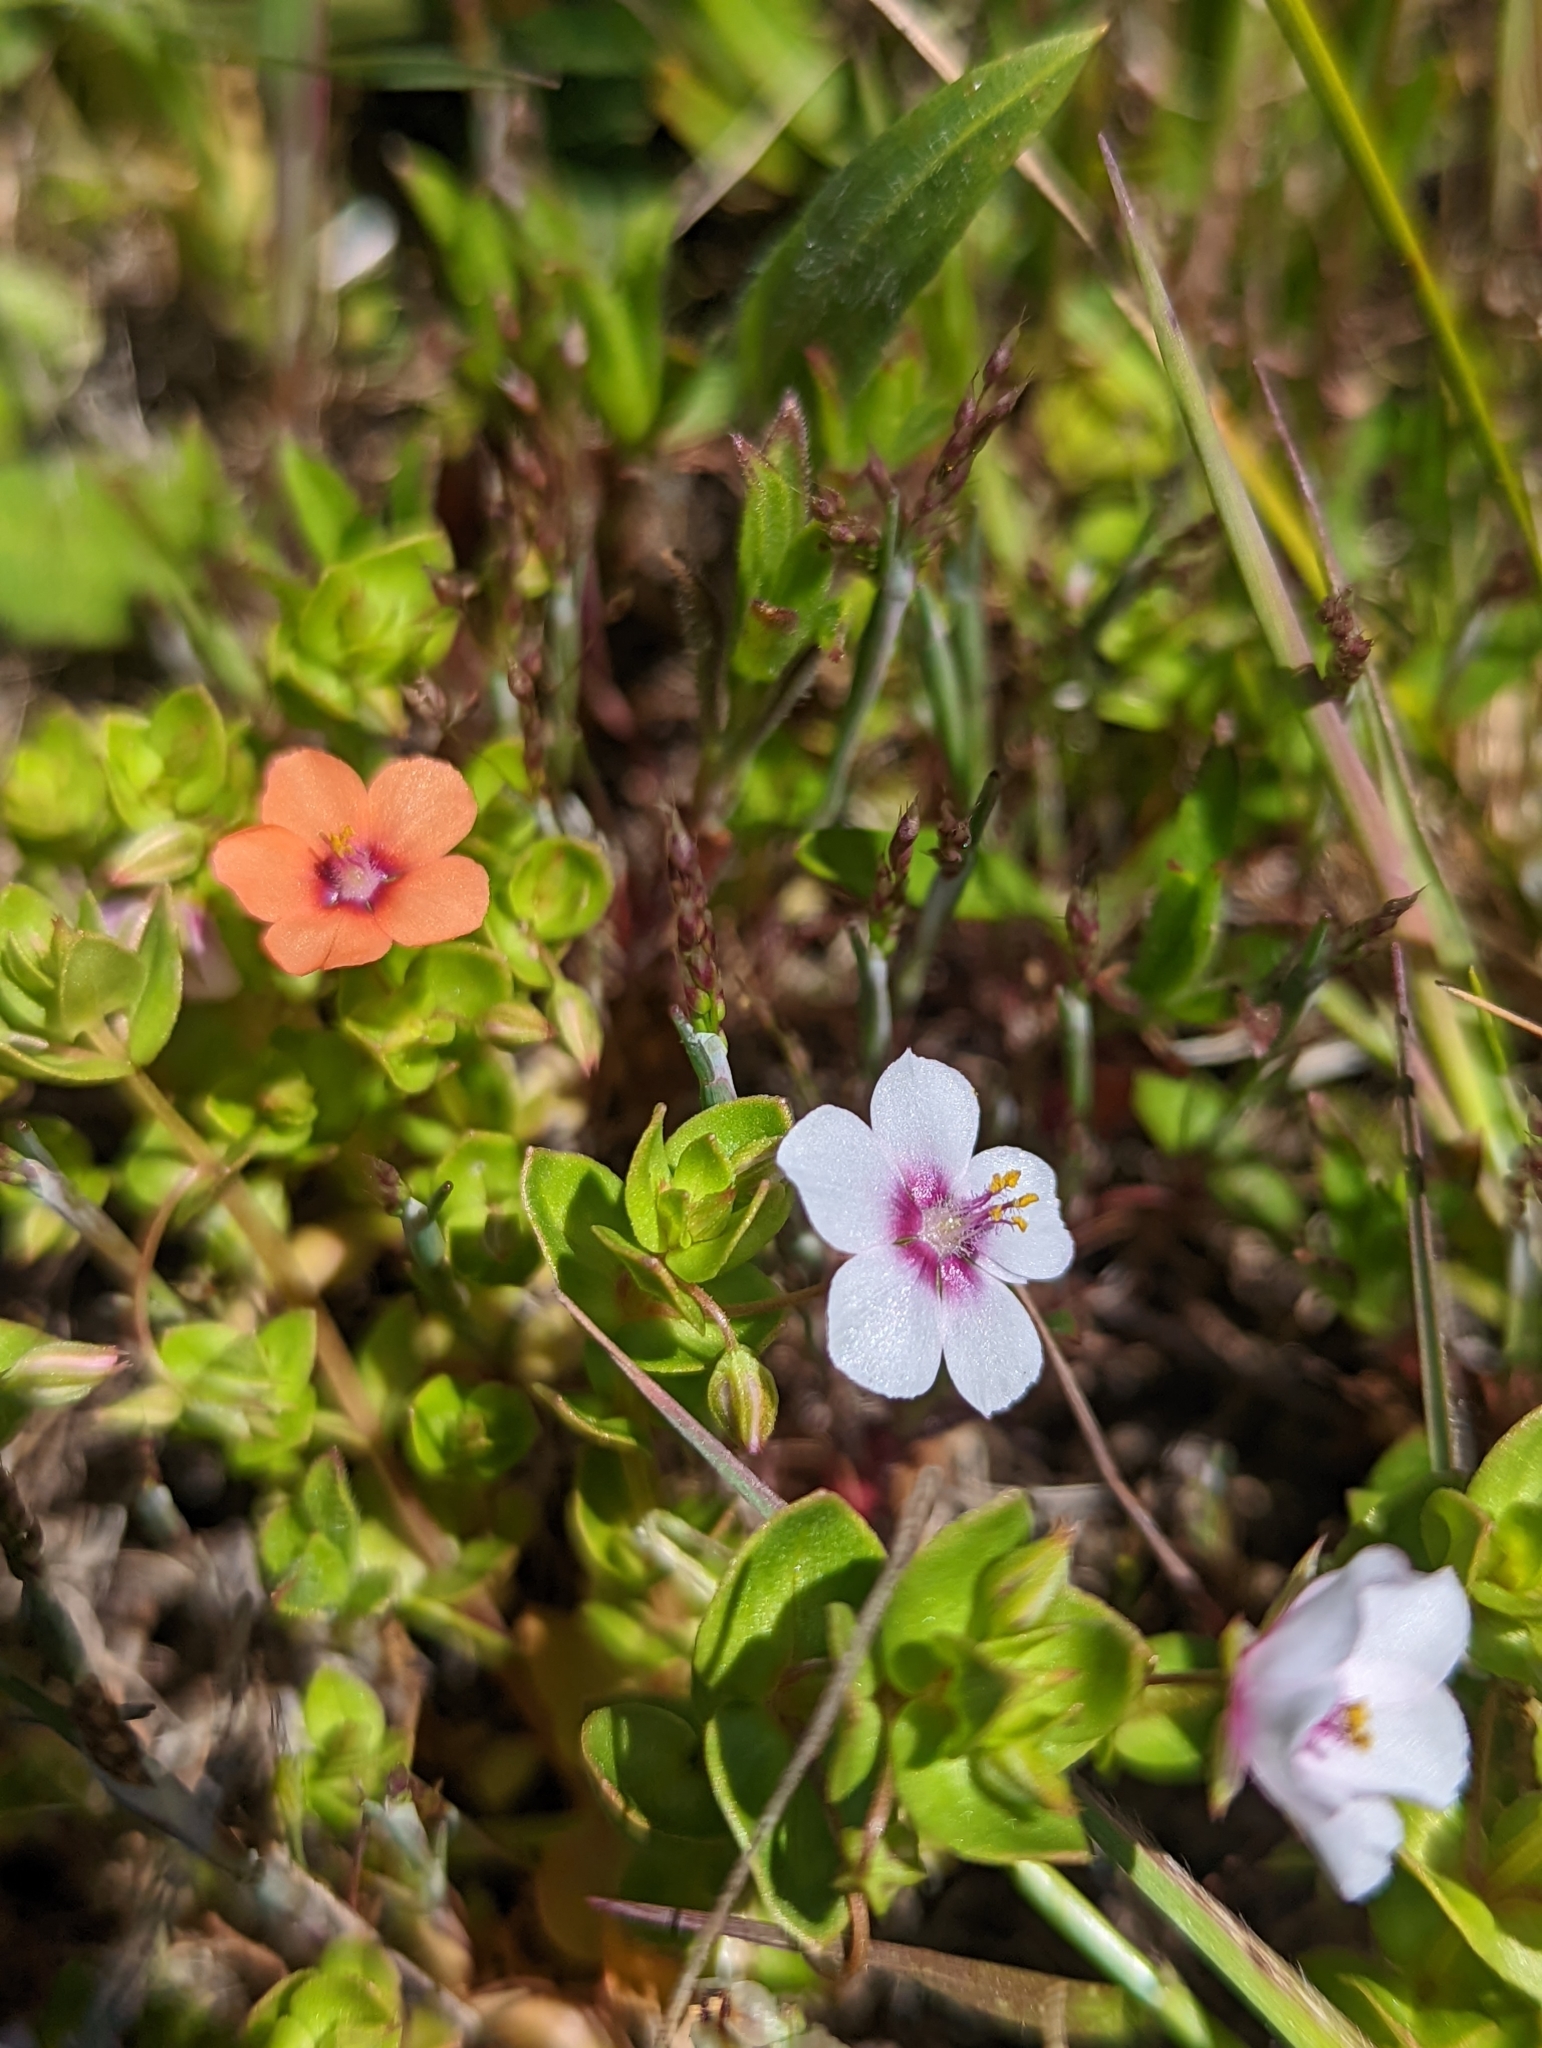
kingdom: Plantae
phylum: Tracheophyta
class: Magnoliopsida
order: Ericales
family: Primulaceae
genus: Lysimachia
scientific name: Lysimachia arvensis
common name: Scarlet pimpernel
